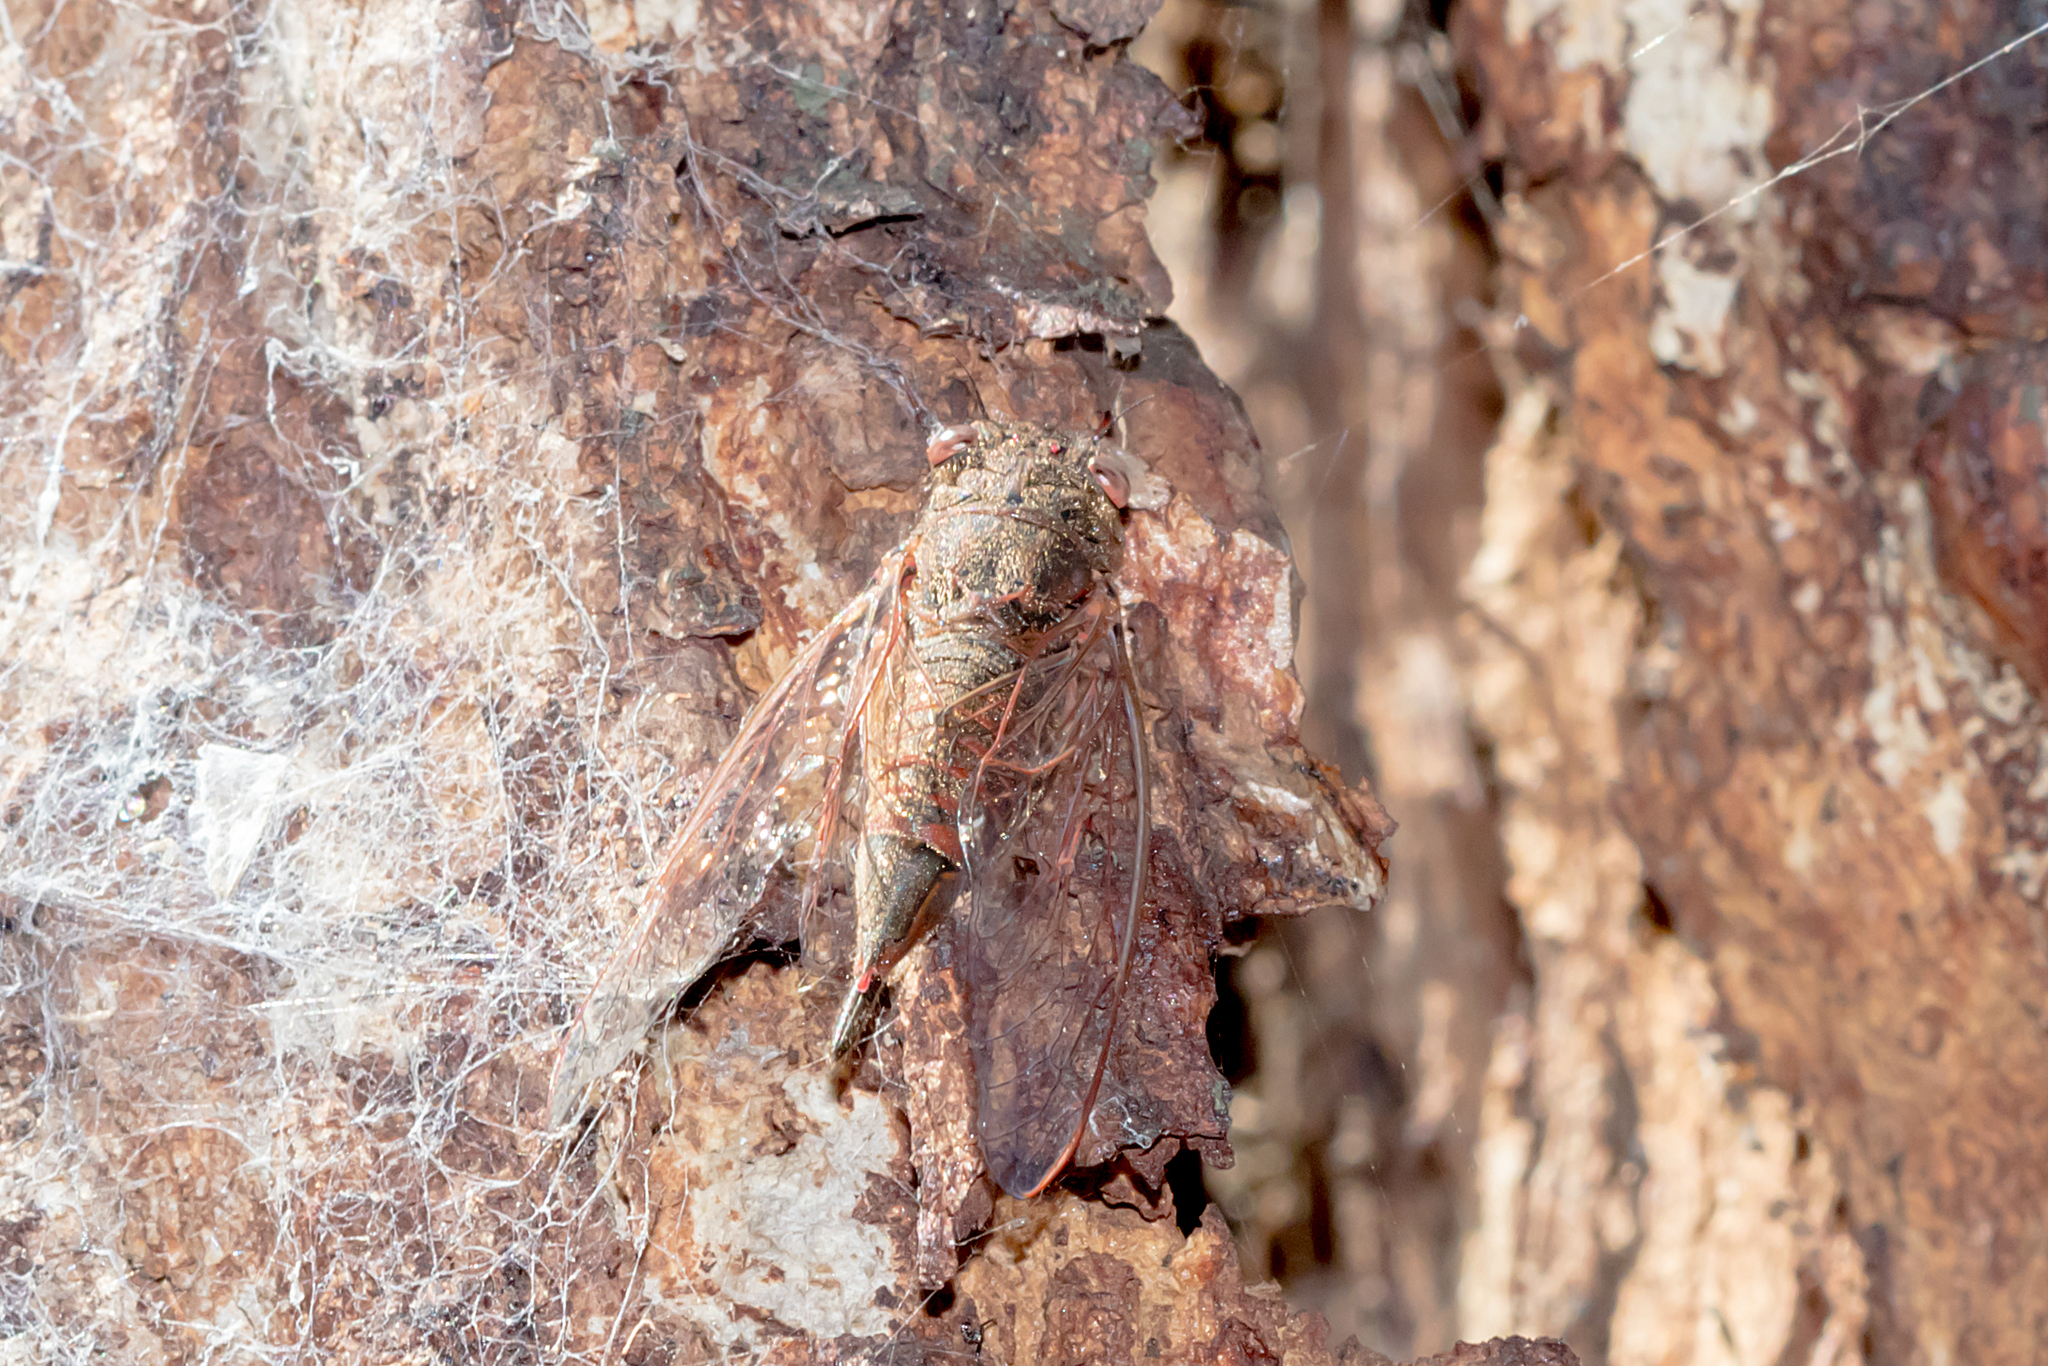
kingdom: Animalia
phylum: Arthropoda
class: Insecta
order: Hemiptera
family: Cicadidae
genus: Popplepsalta
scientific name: Popplepsalta rubristrigata
